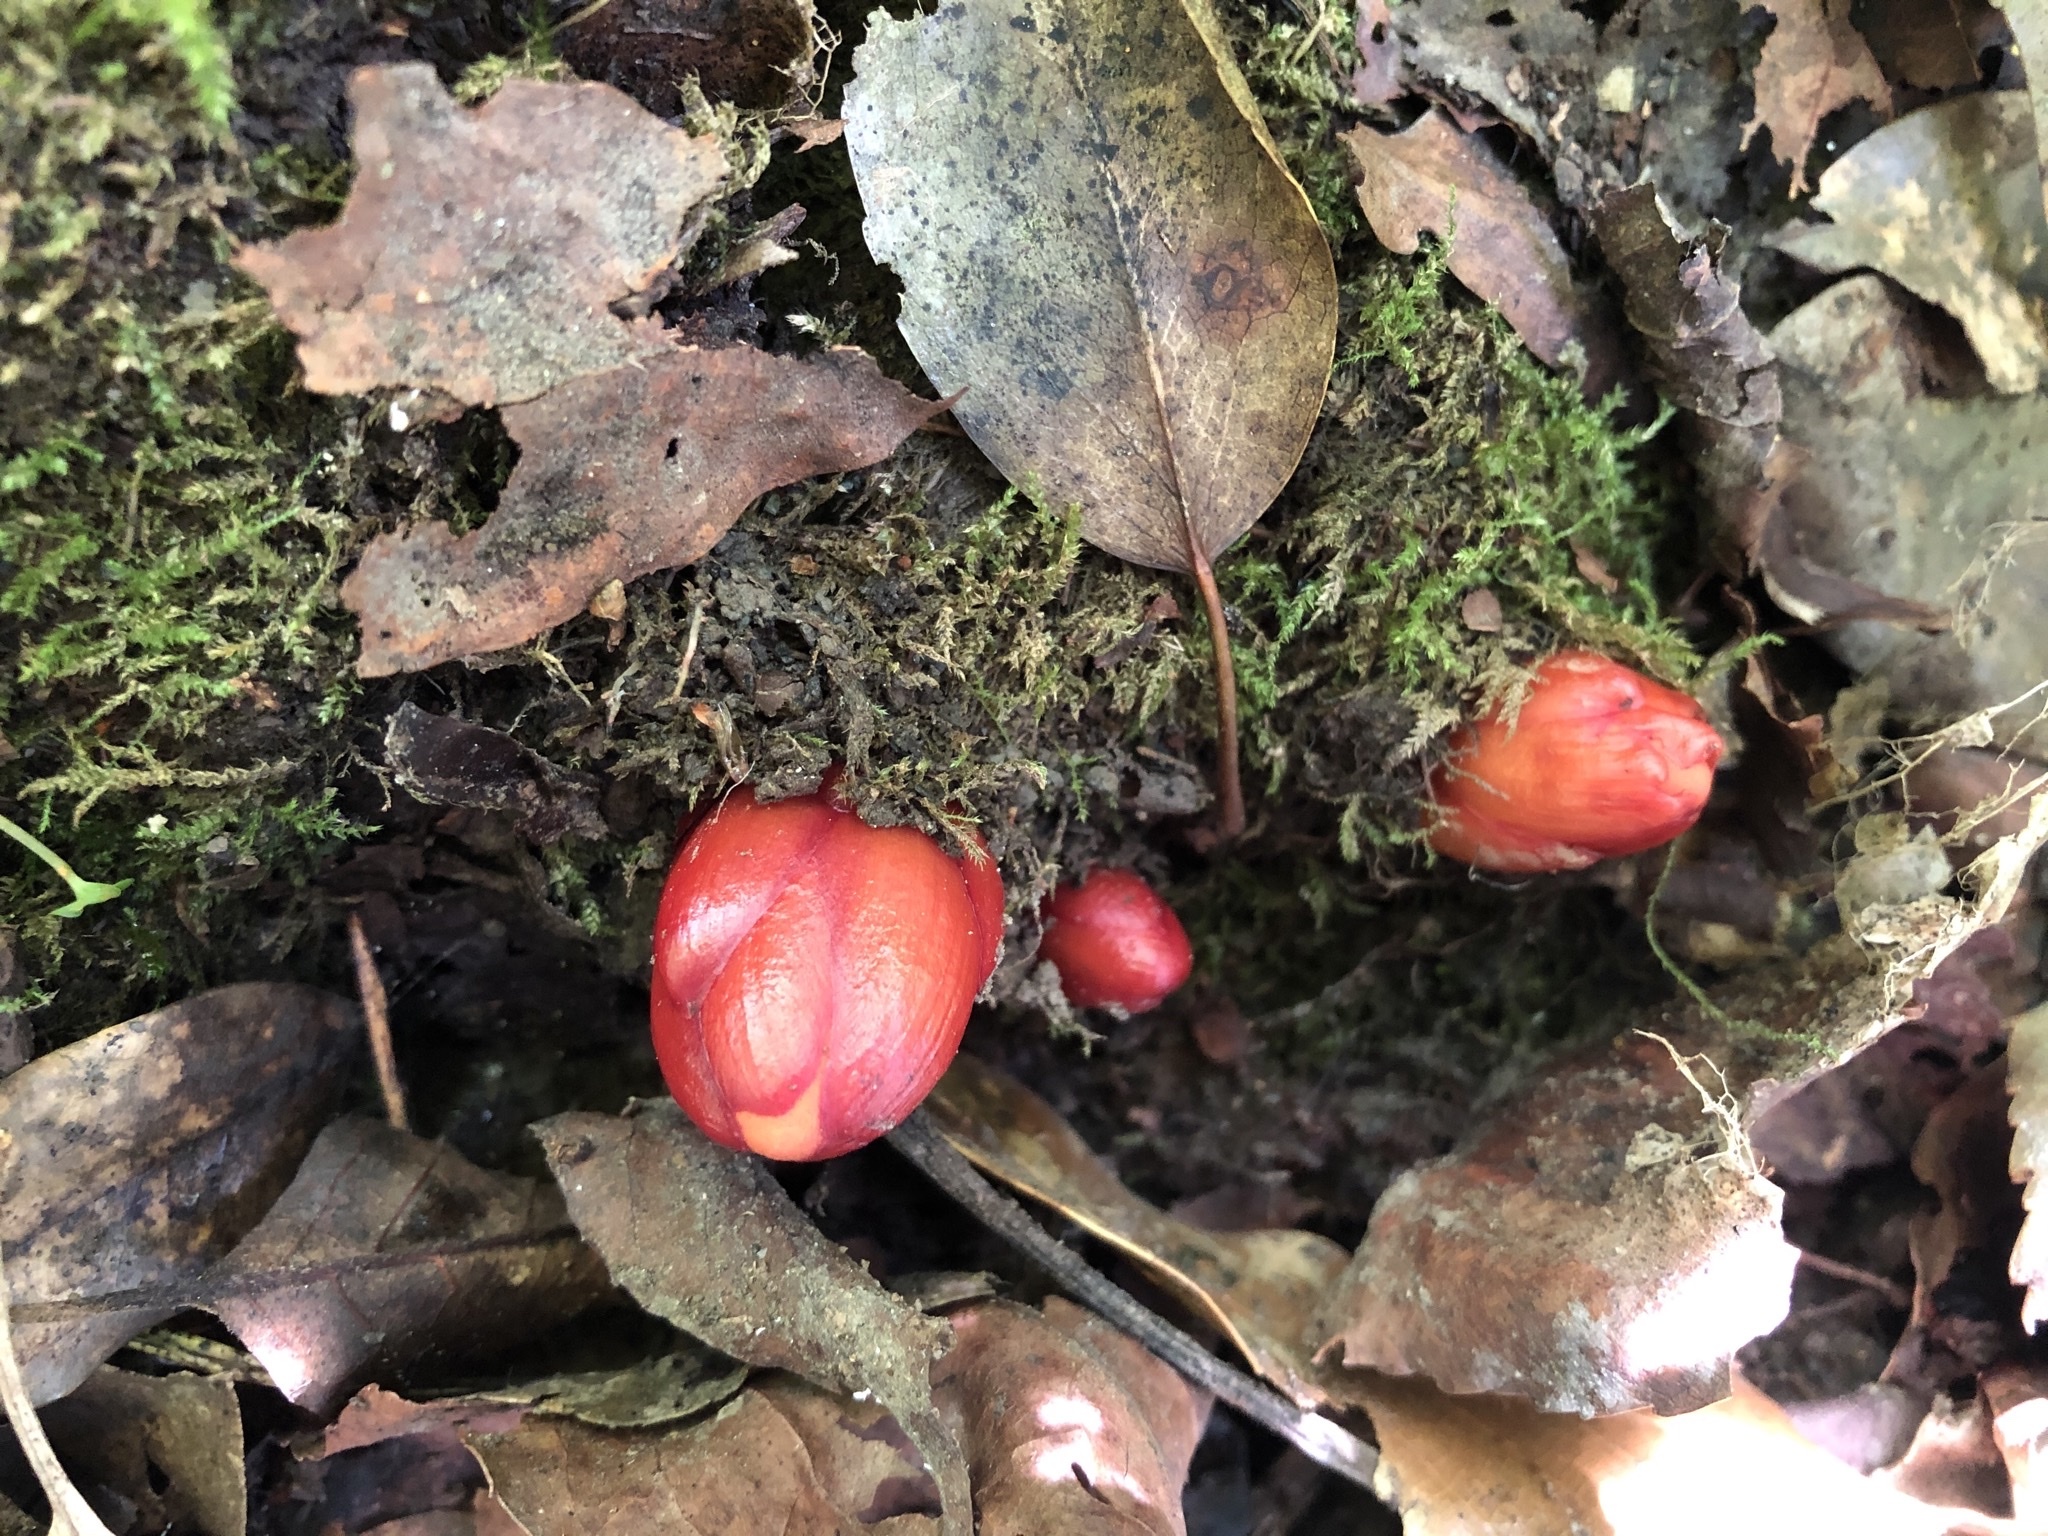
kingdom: Plantae
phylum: Tracheophyta
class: Magnoliopsida
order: Santalales
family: Balanophoraceae
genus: Balanophora
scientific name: Balanophora laxiflora
